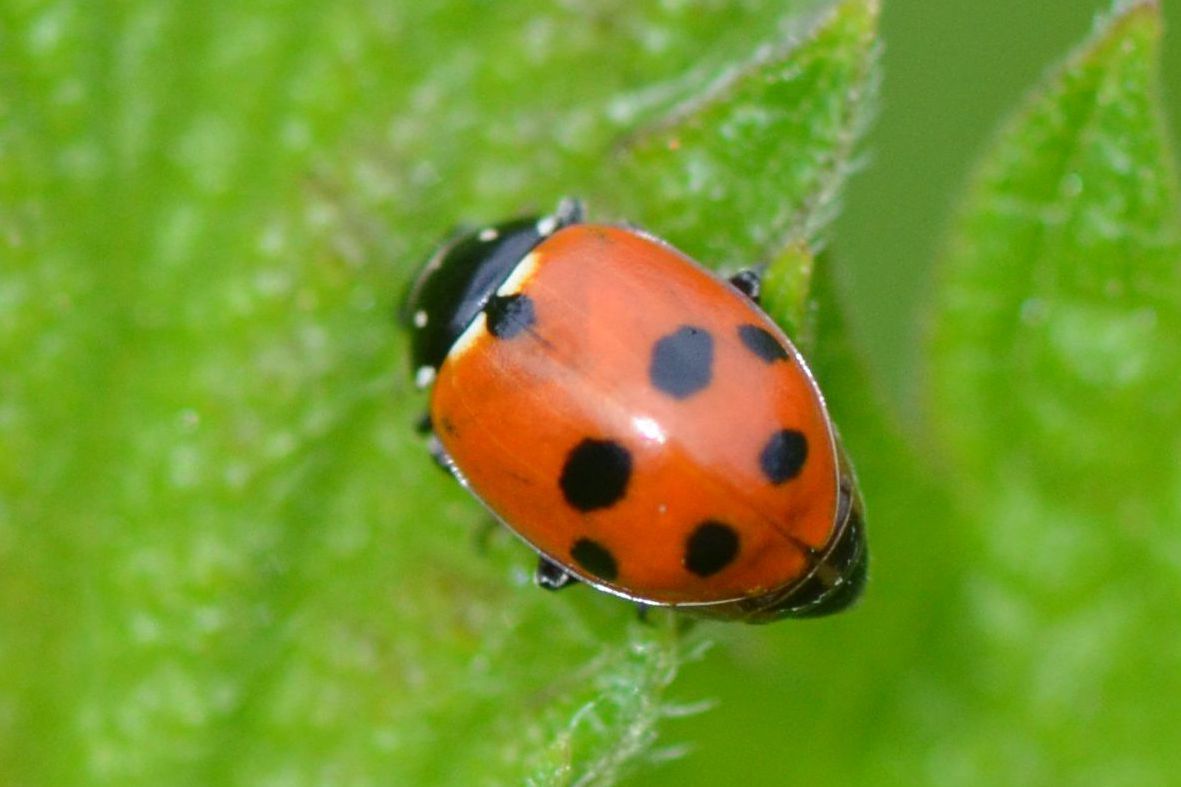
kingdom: Animalia
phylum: Arthropoda
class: Insecta
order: Coleoptera
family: Coccinellidae
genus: Hippodamia
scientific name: Hippodamia variegata
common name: Ladybird beetle
